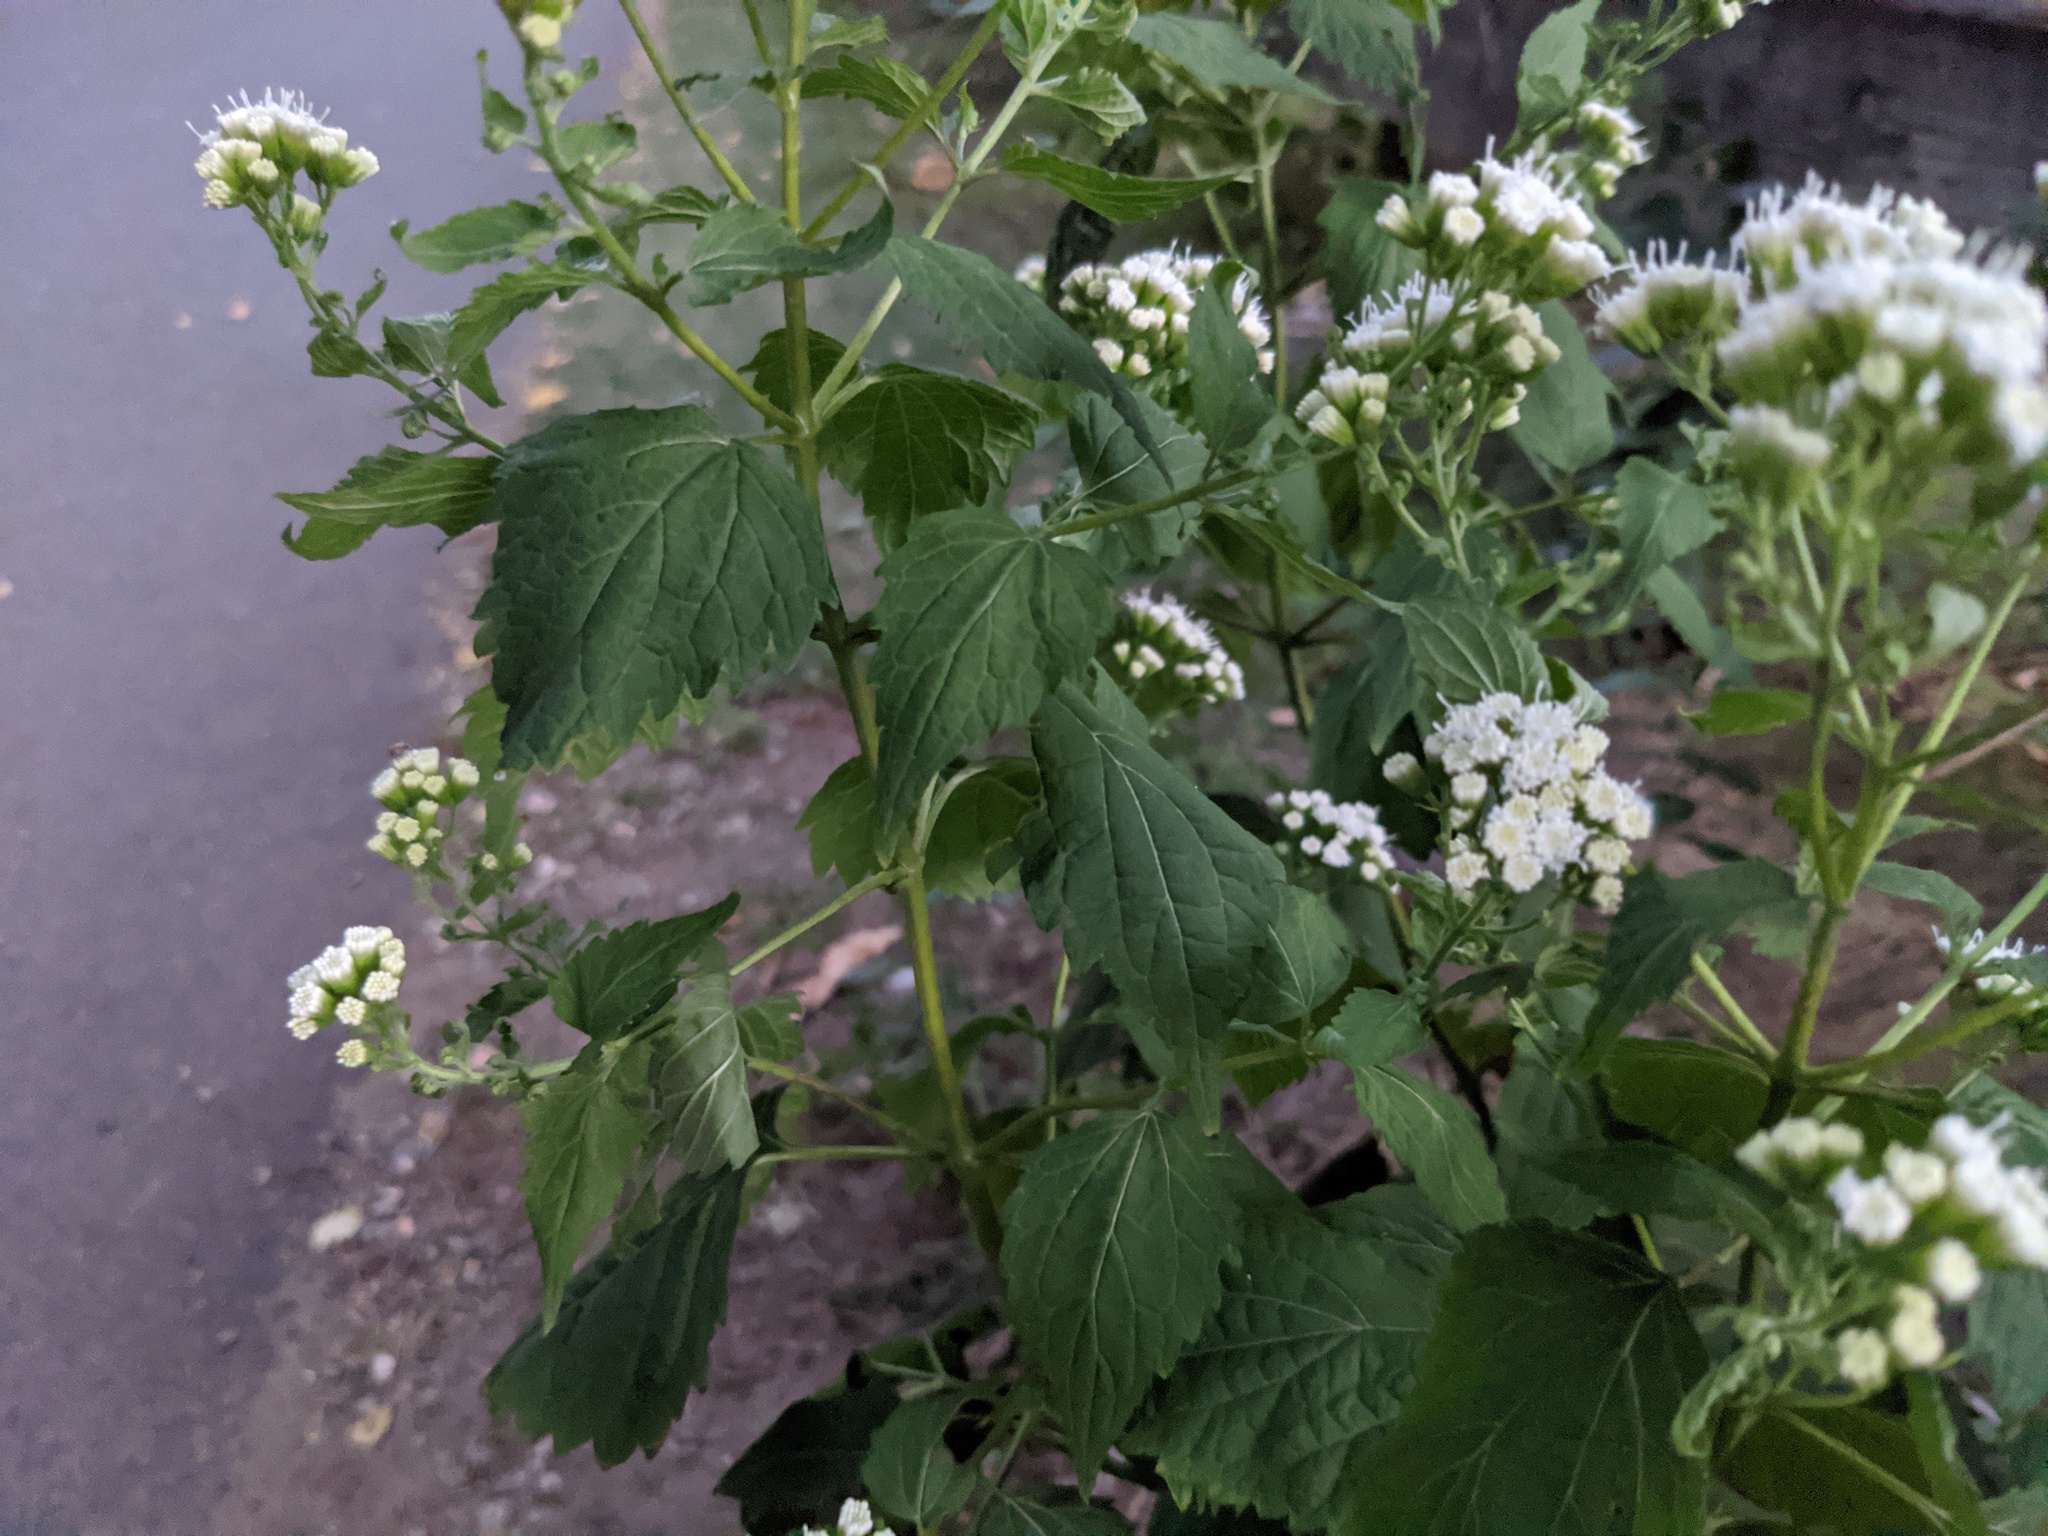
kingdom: Plantae
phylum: Tracheophyta
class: Magnoliopsida
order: Asterales
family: Asteraceae
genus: Ageratina
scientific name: Ageratina altissima
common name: White snakeroot
